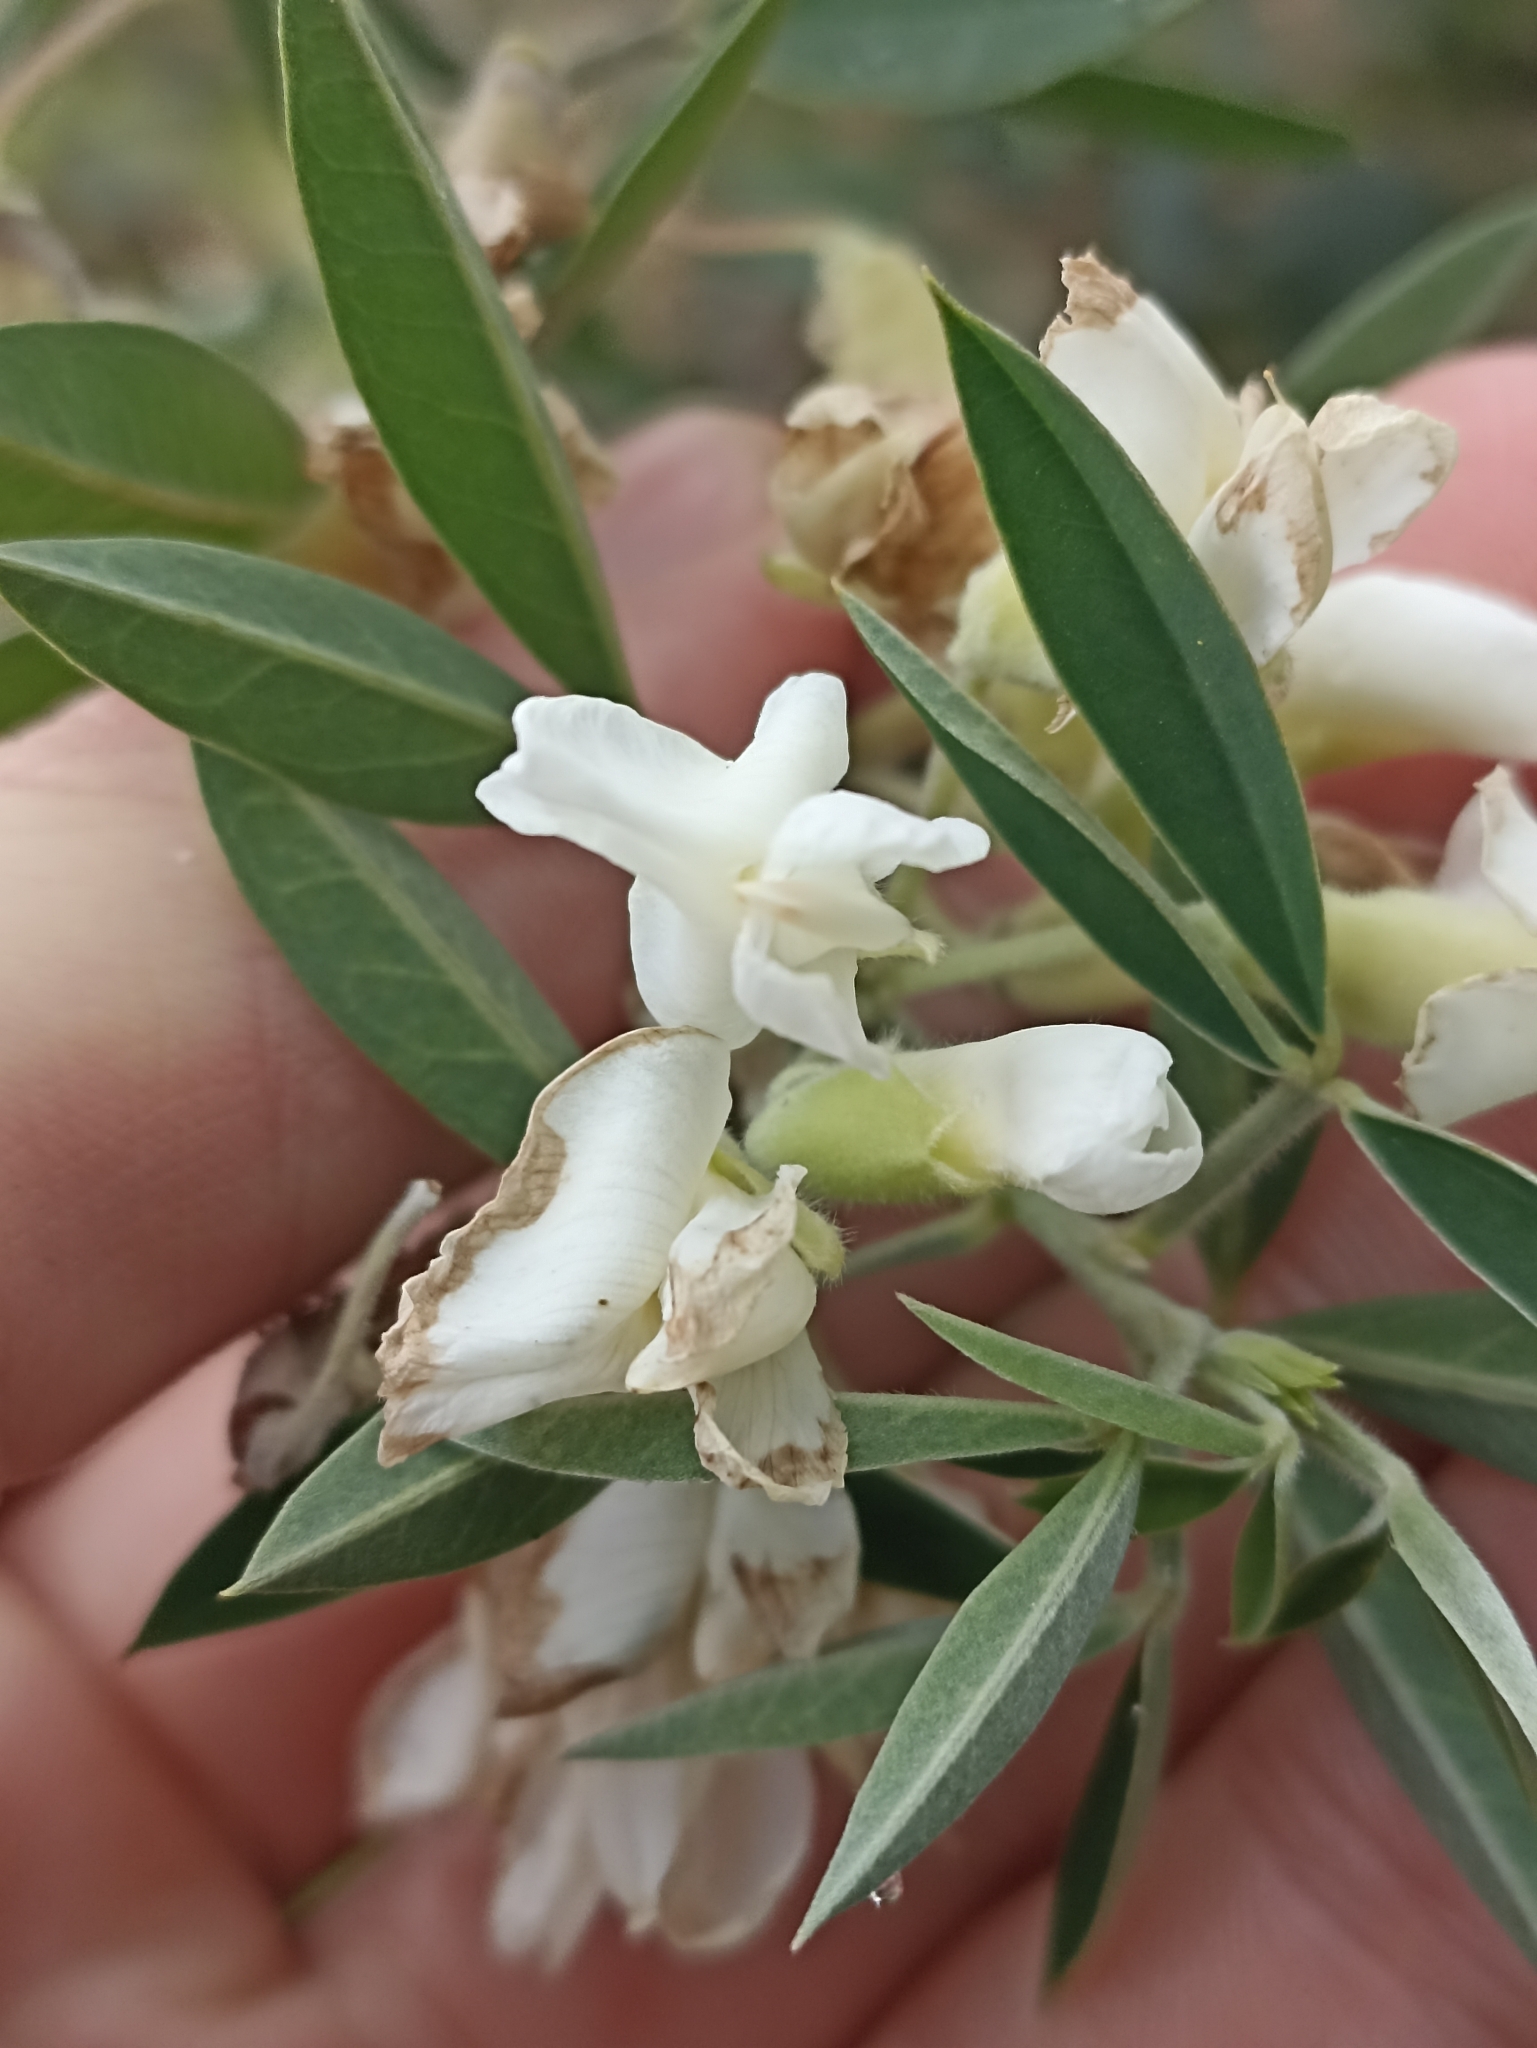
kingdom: Plantae
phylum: Tracheophyta
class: Magnoliopsida
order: Fabales
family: Fabaceae
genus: Chamaecytisus
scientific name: Chamaecytisus prolifer
